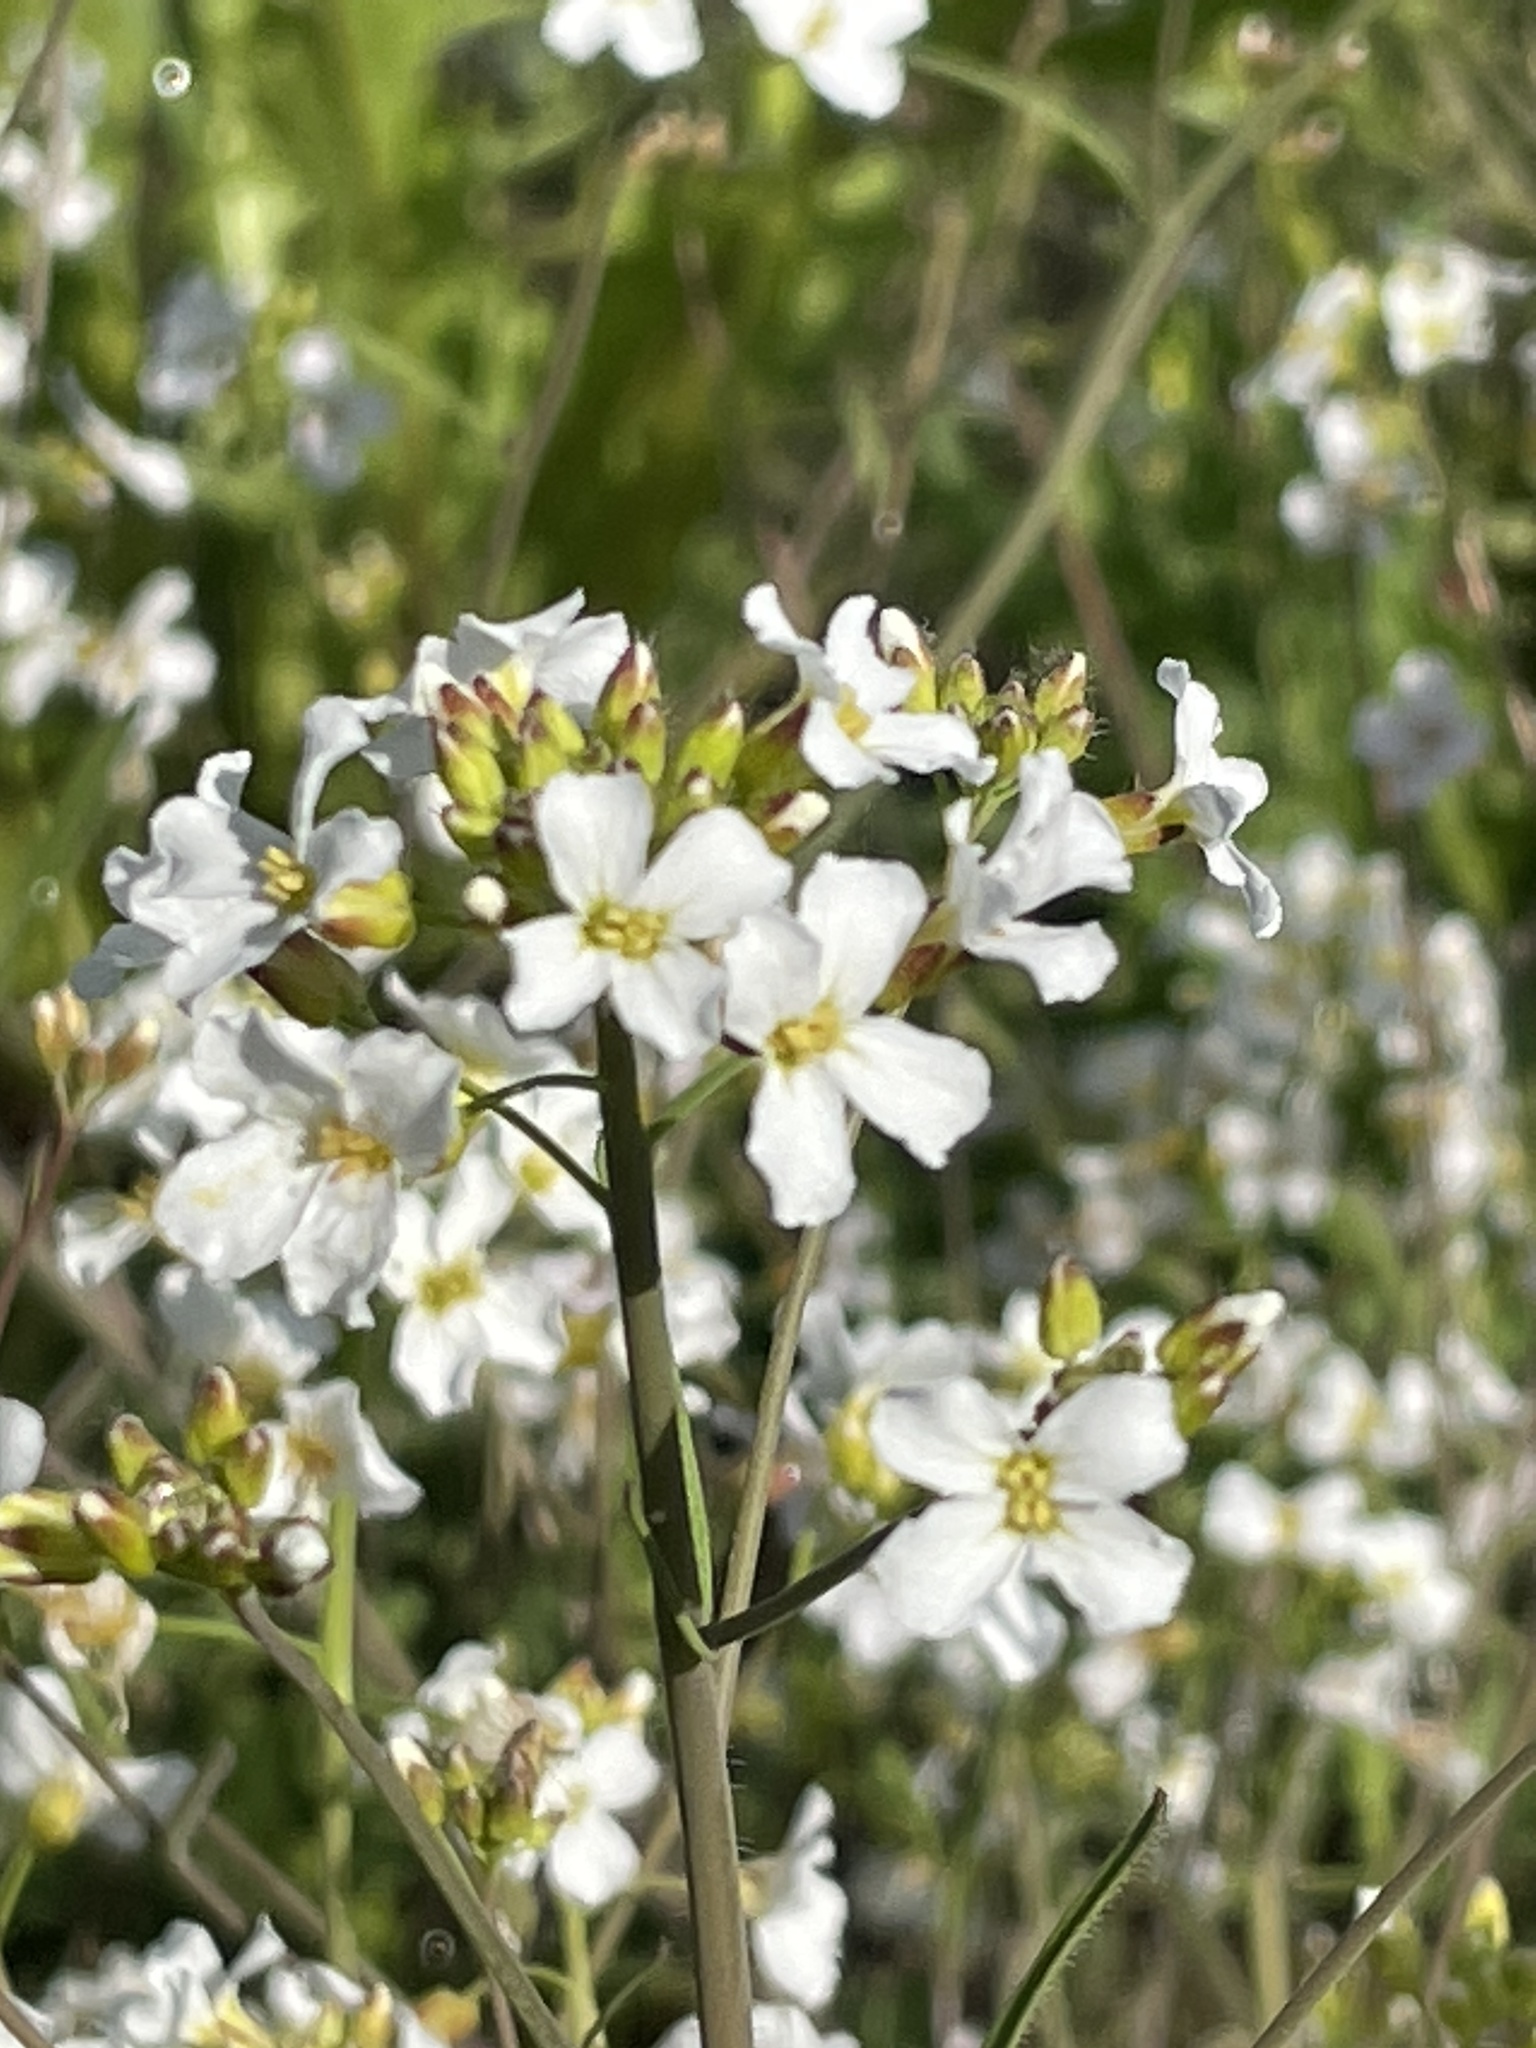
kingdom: Plantae
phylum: Tracheophyta
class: Magnoliopsida
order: Brassicales
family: Brassicaceae
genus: Arabidopsis
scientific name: Arabidopsis arenosa
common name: Sand rock-cress
